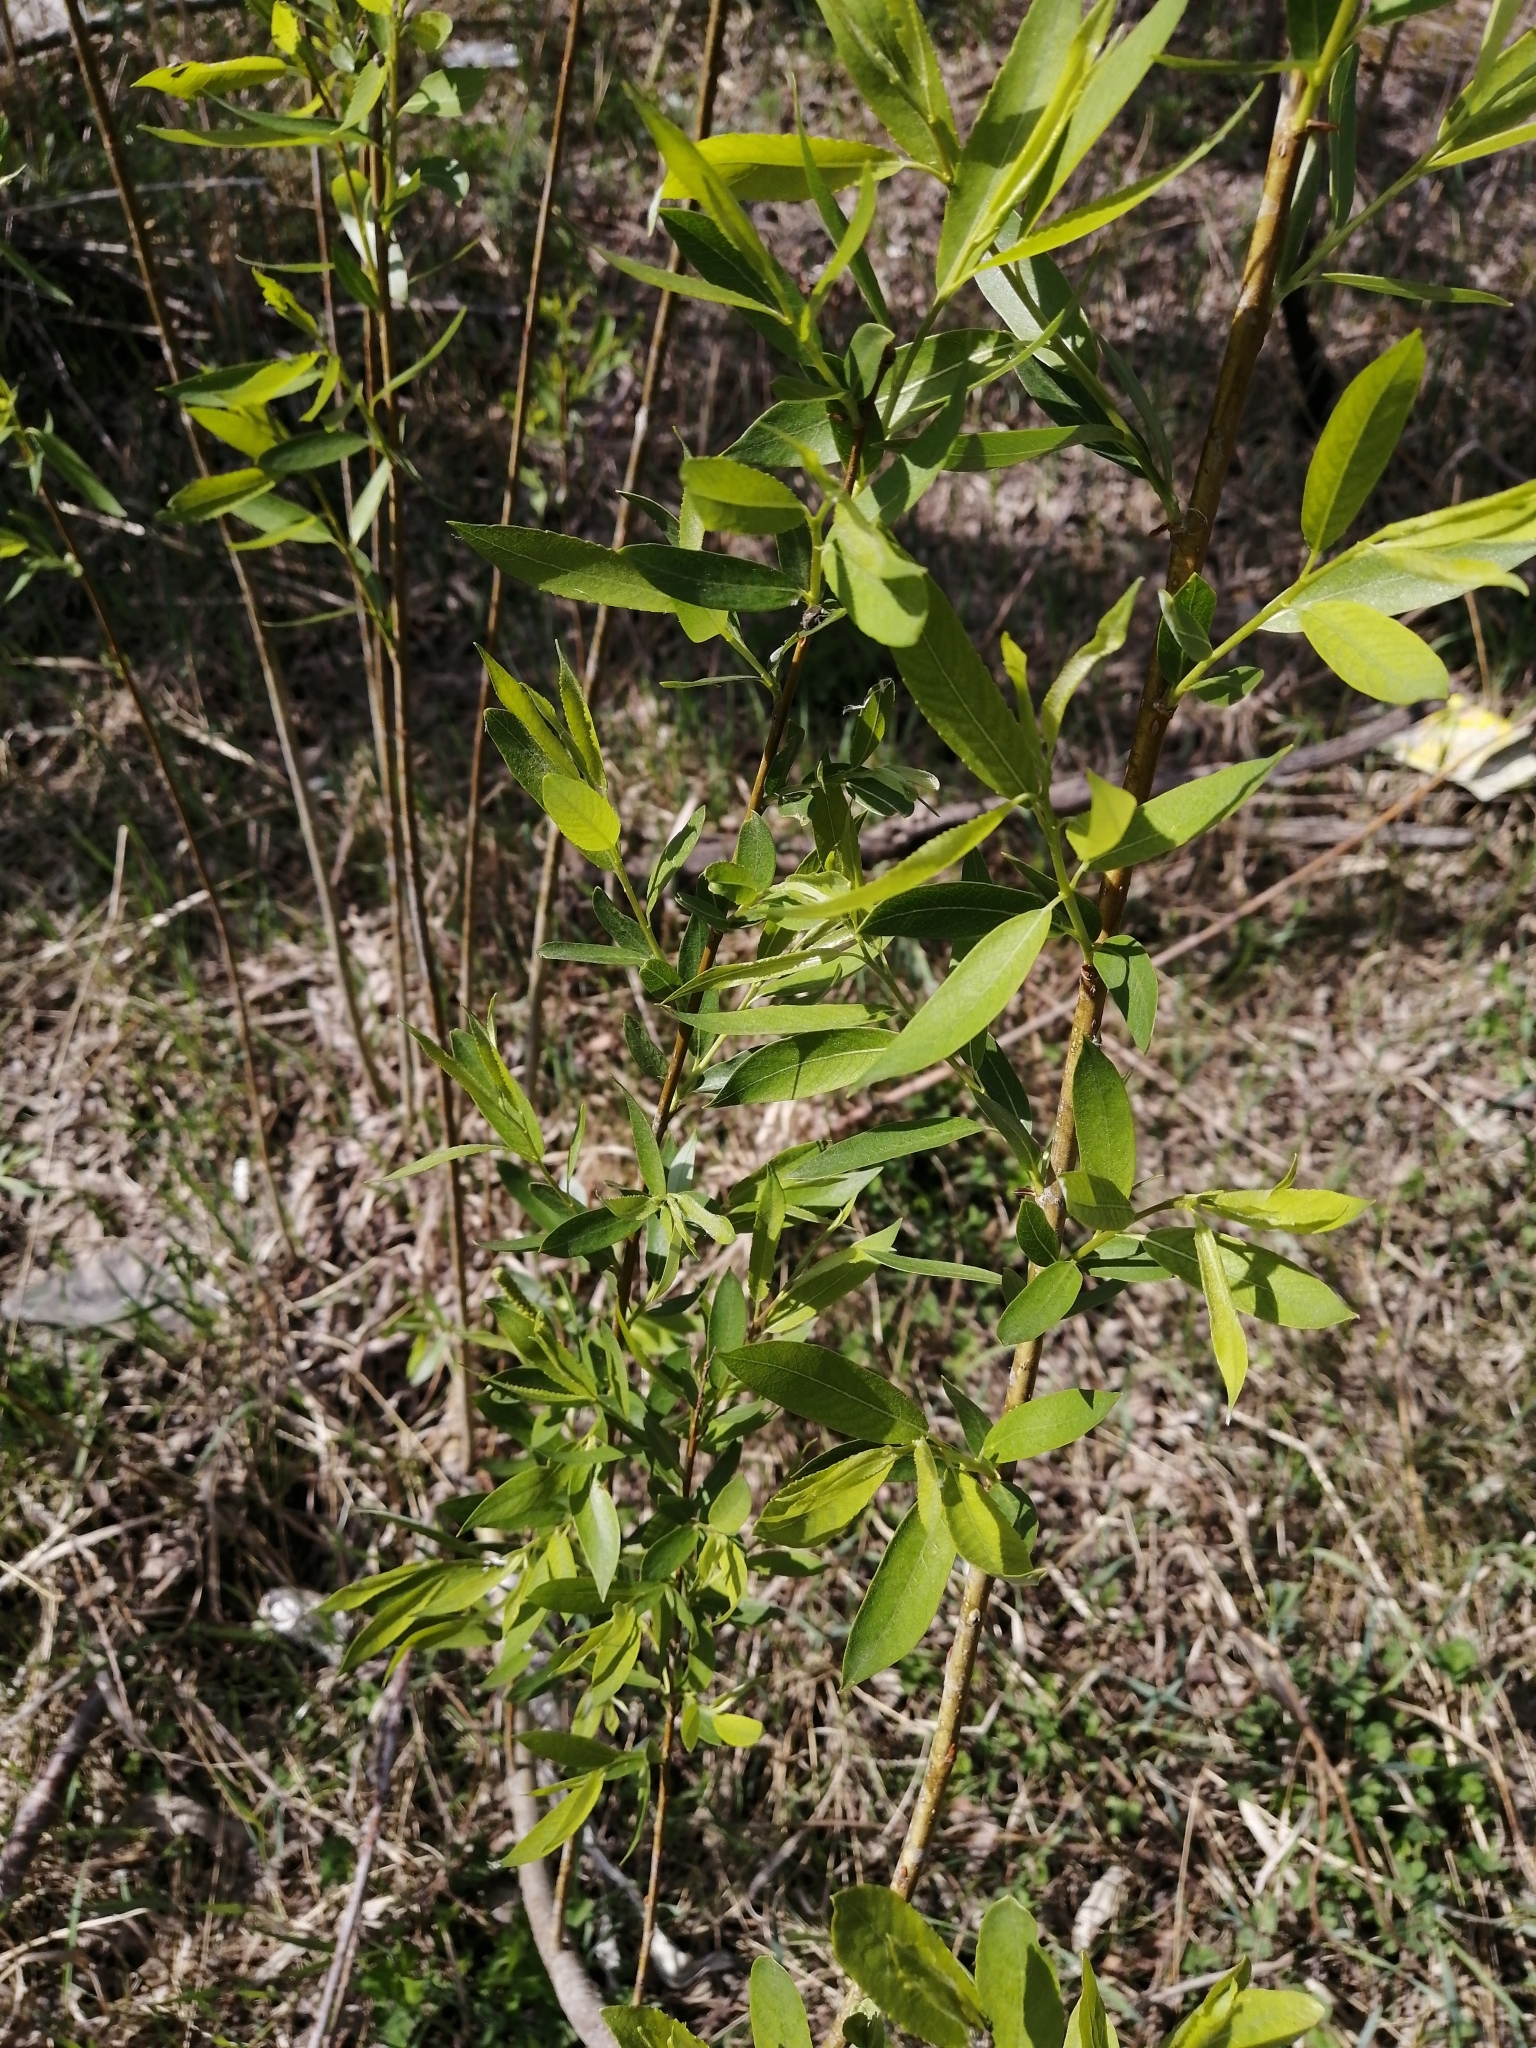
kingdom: Plantae
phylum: Tracheophyta
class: Magnoliopsida
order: Malpighiales
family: Salicaceae
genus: Salix
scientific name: Salix pentandra
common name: Bay willow
